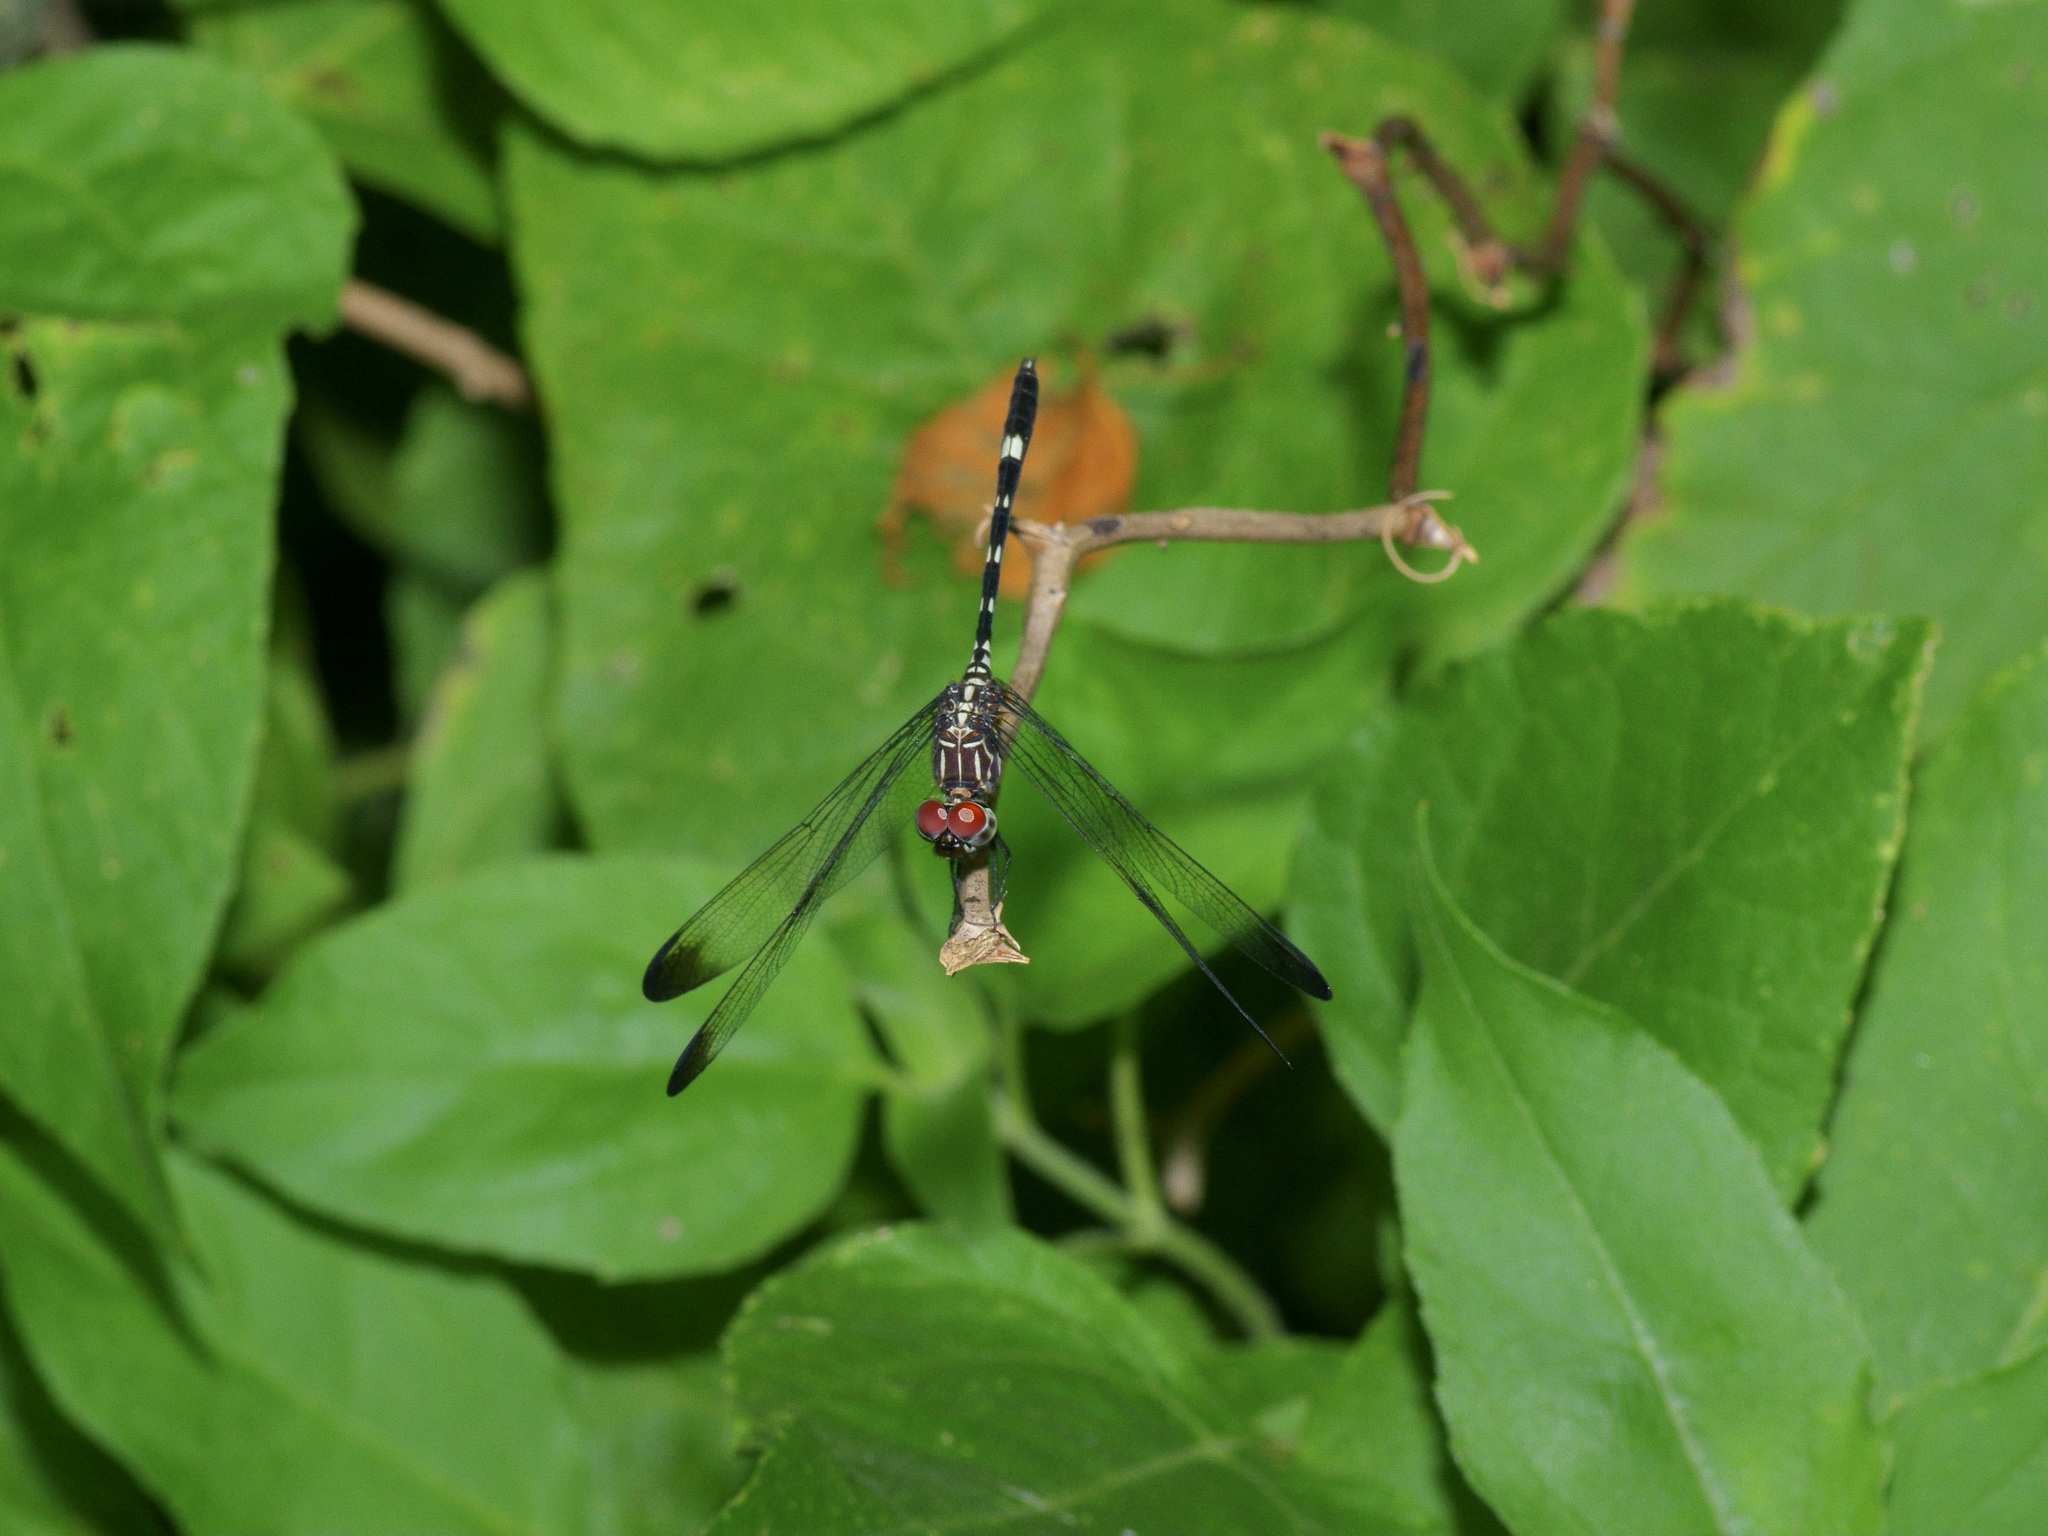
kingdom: Animalia
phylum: Arthropoda
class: Insecta
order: Odonata
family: Libellulidae
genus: Dythemis
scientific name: Dythemis velox
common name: Swift setwing
